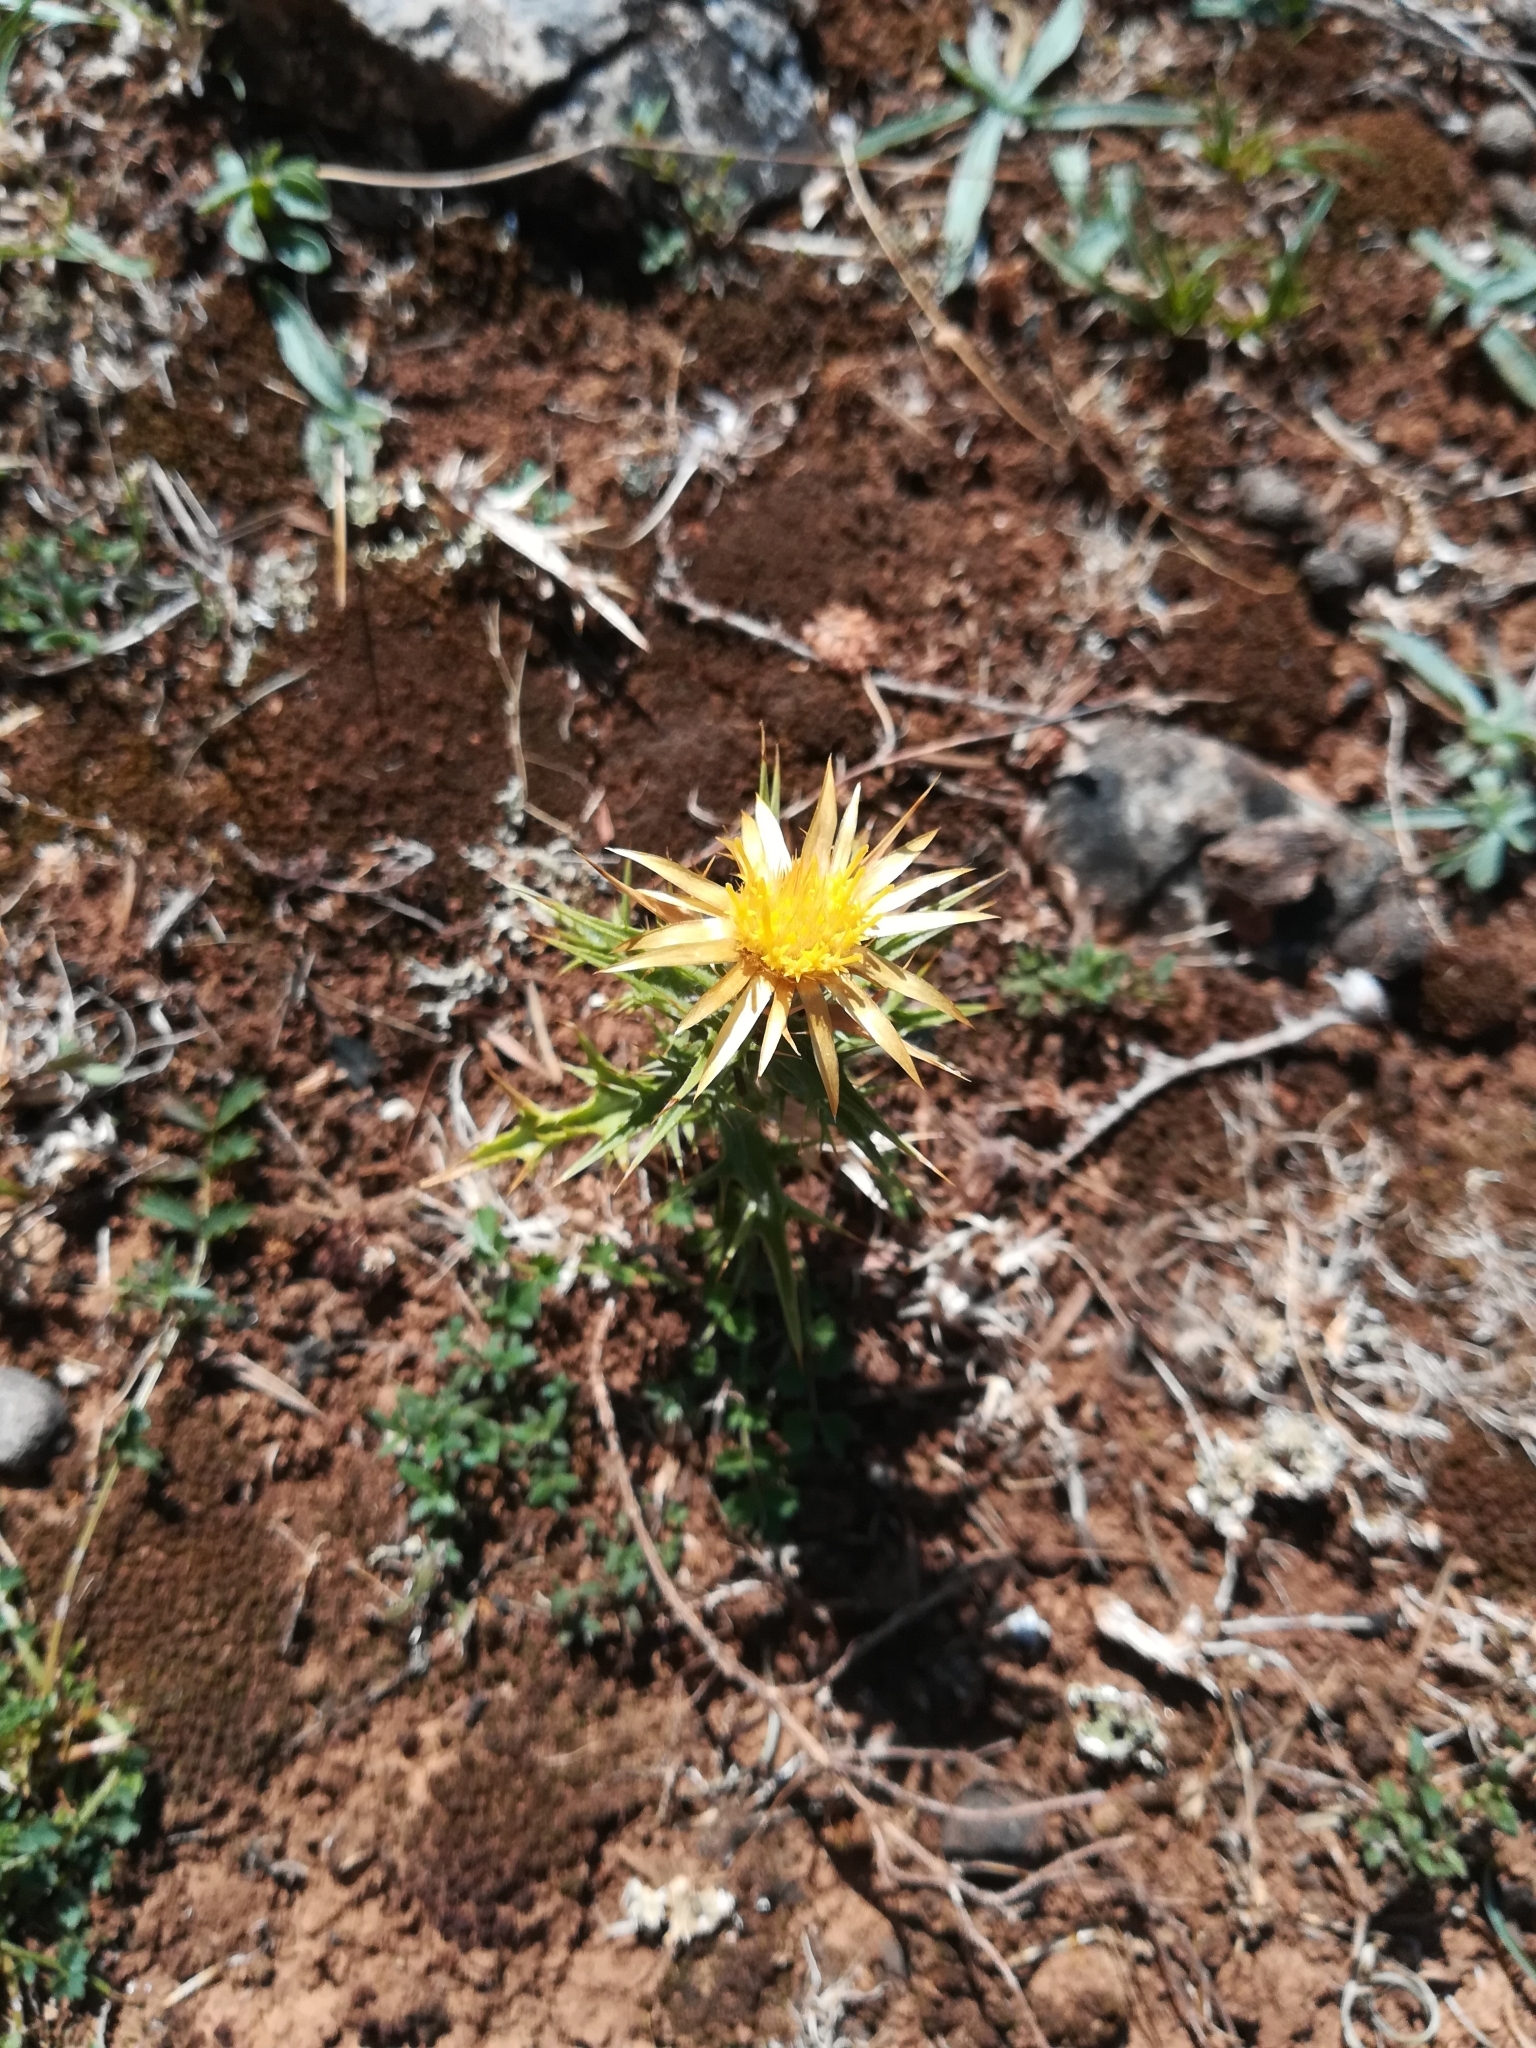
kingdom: Plantae
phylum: Tracheophyta
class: Magnoliopsida
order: Asterales
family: Asteraceae
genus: Carlina
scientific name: Carlina corymbosa
